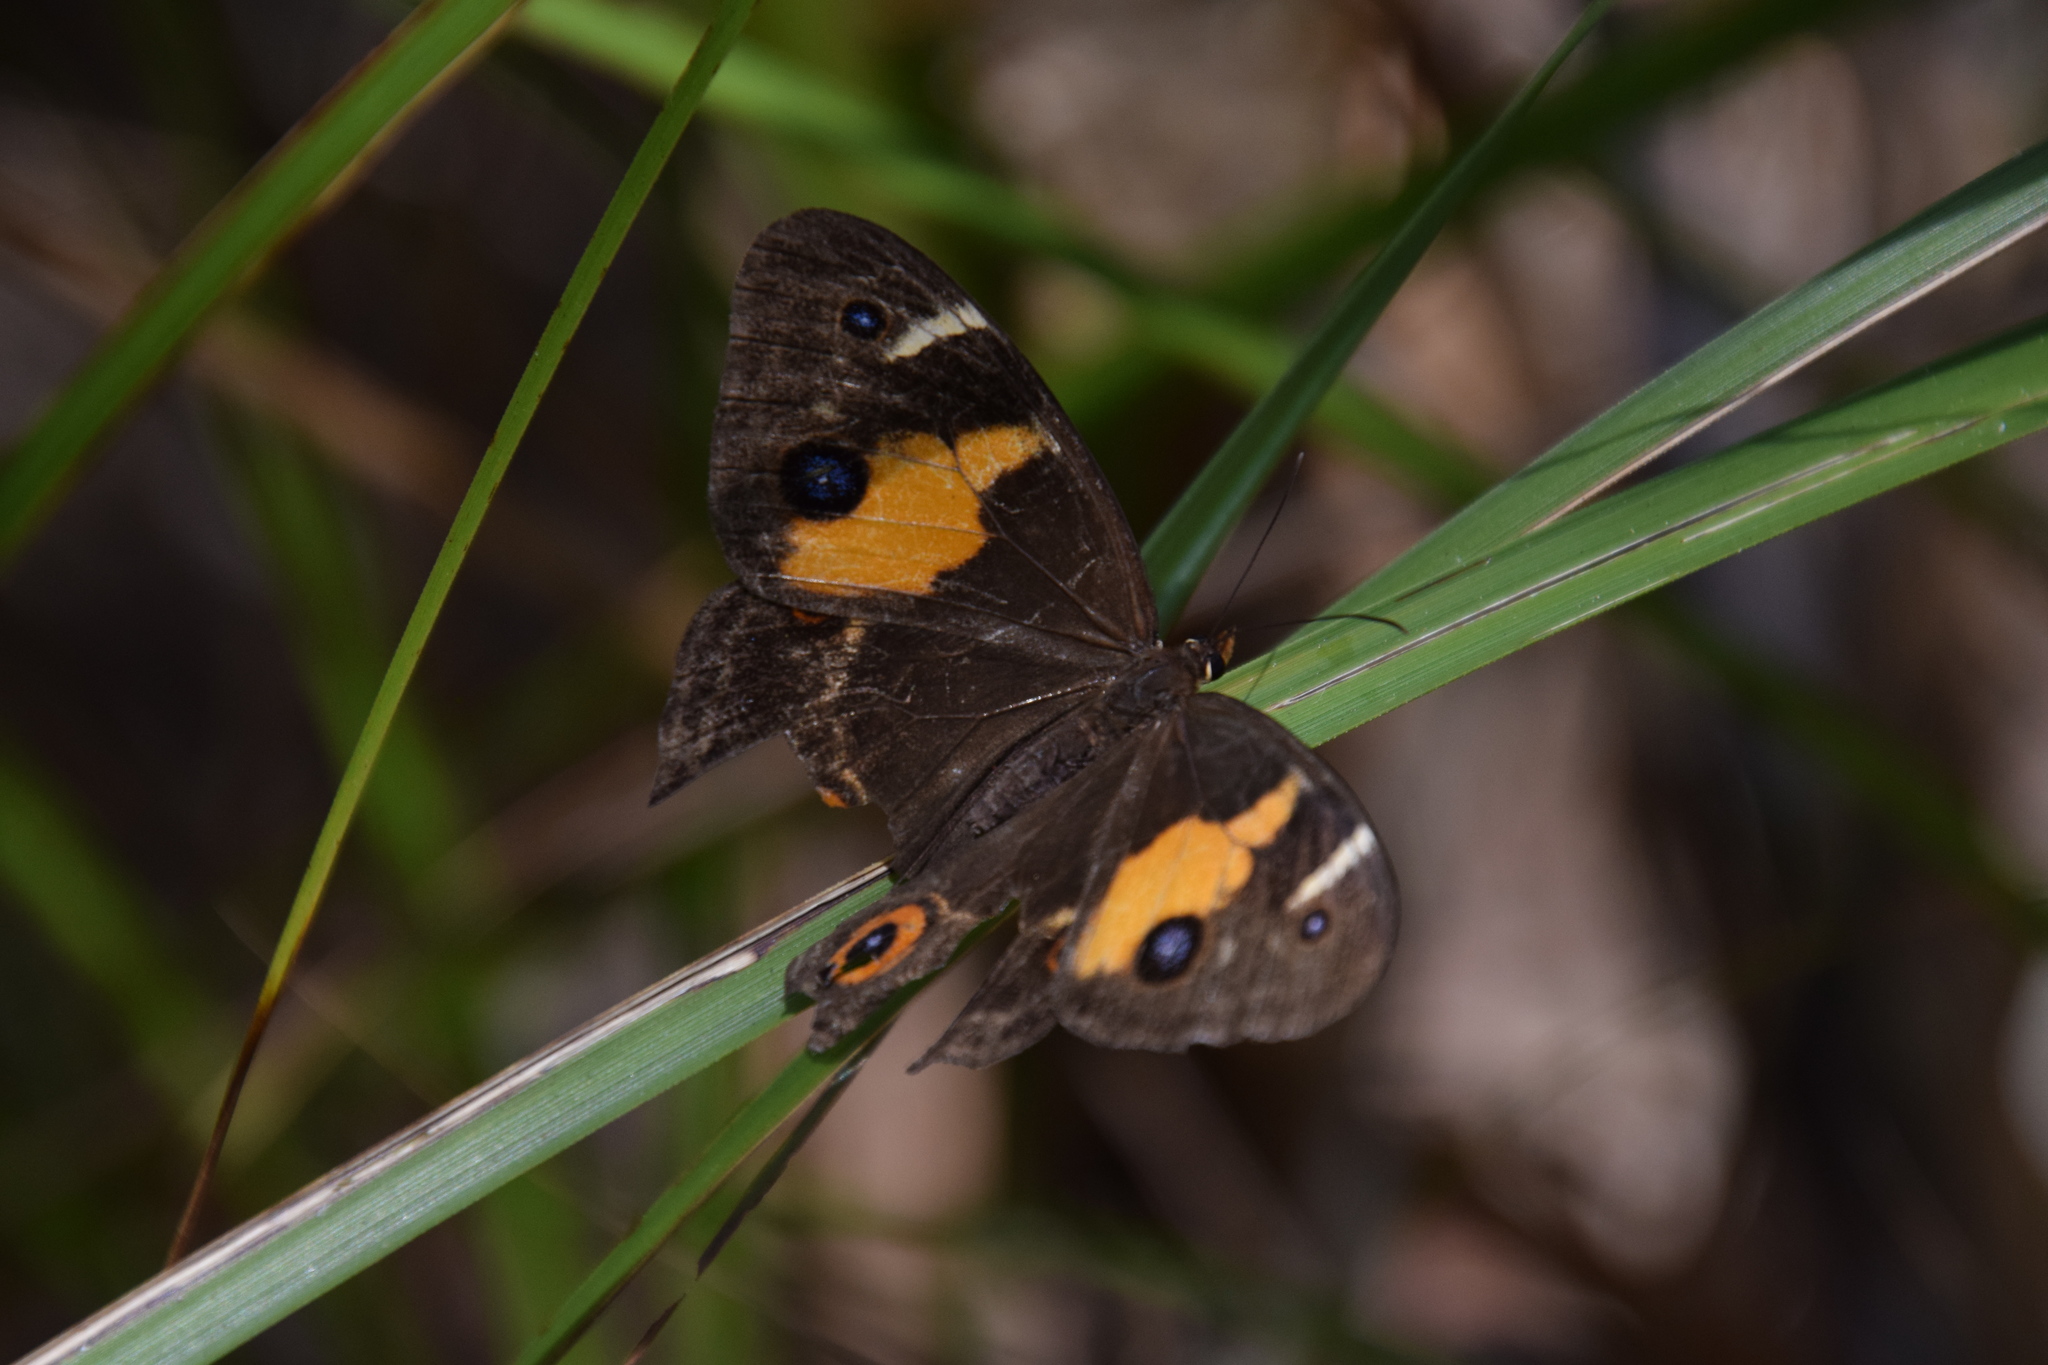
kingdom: Animalia
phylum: Arthropoda
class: Insecta
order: Lepidoptera
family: Nymphalidae
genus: Tisiphone
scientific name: Tisiphone abeona
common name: Swordgrass brown
